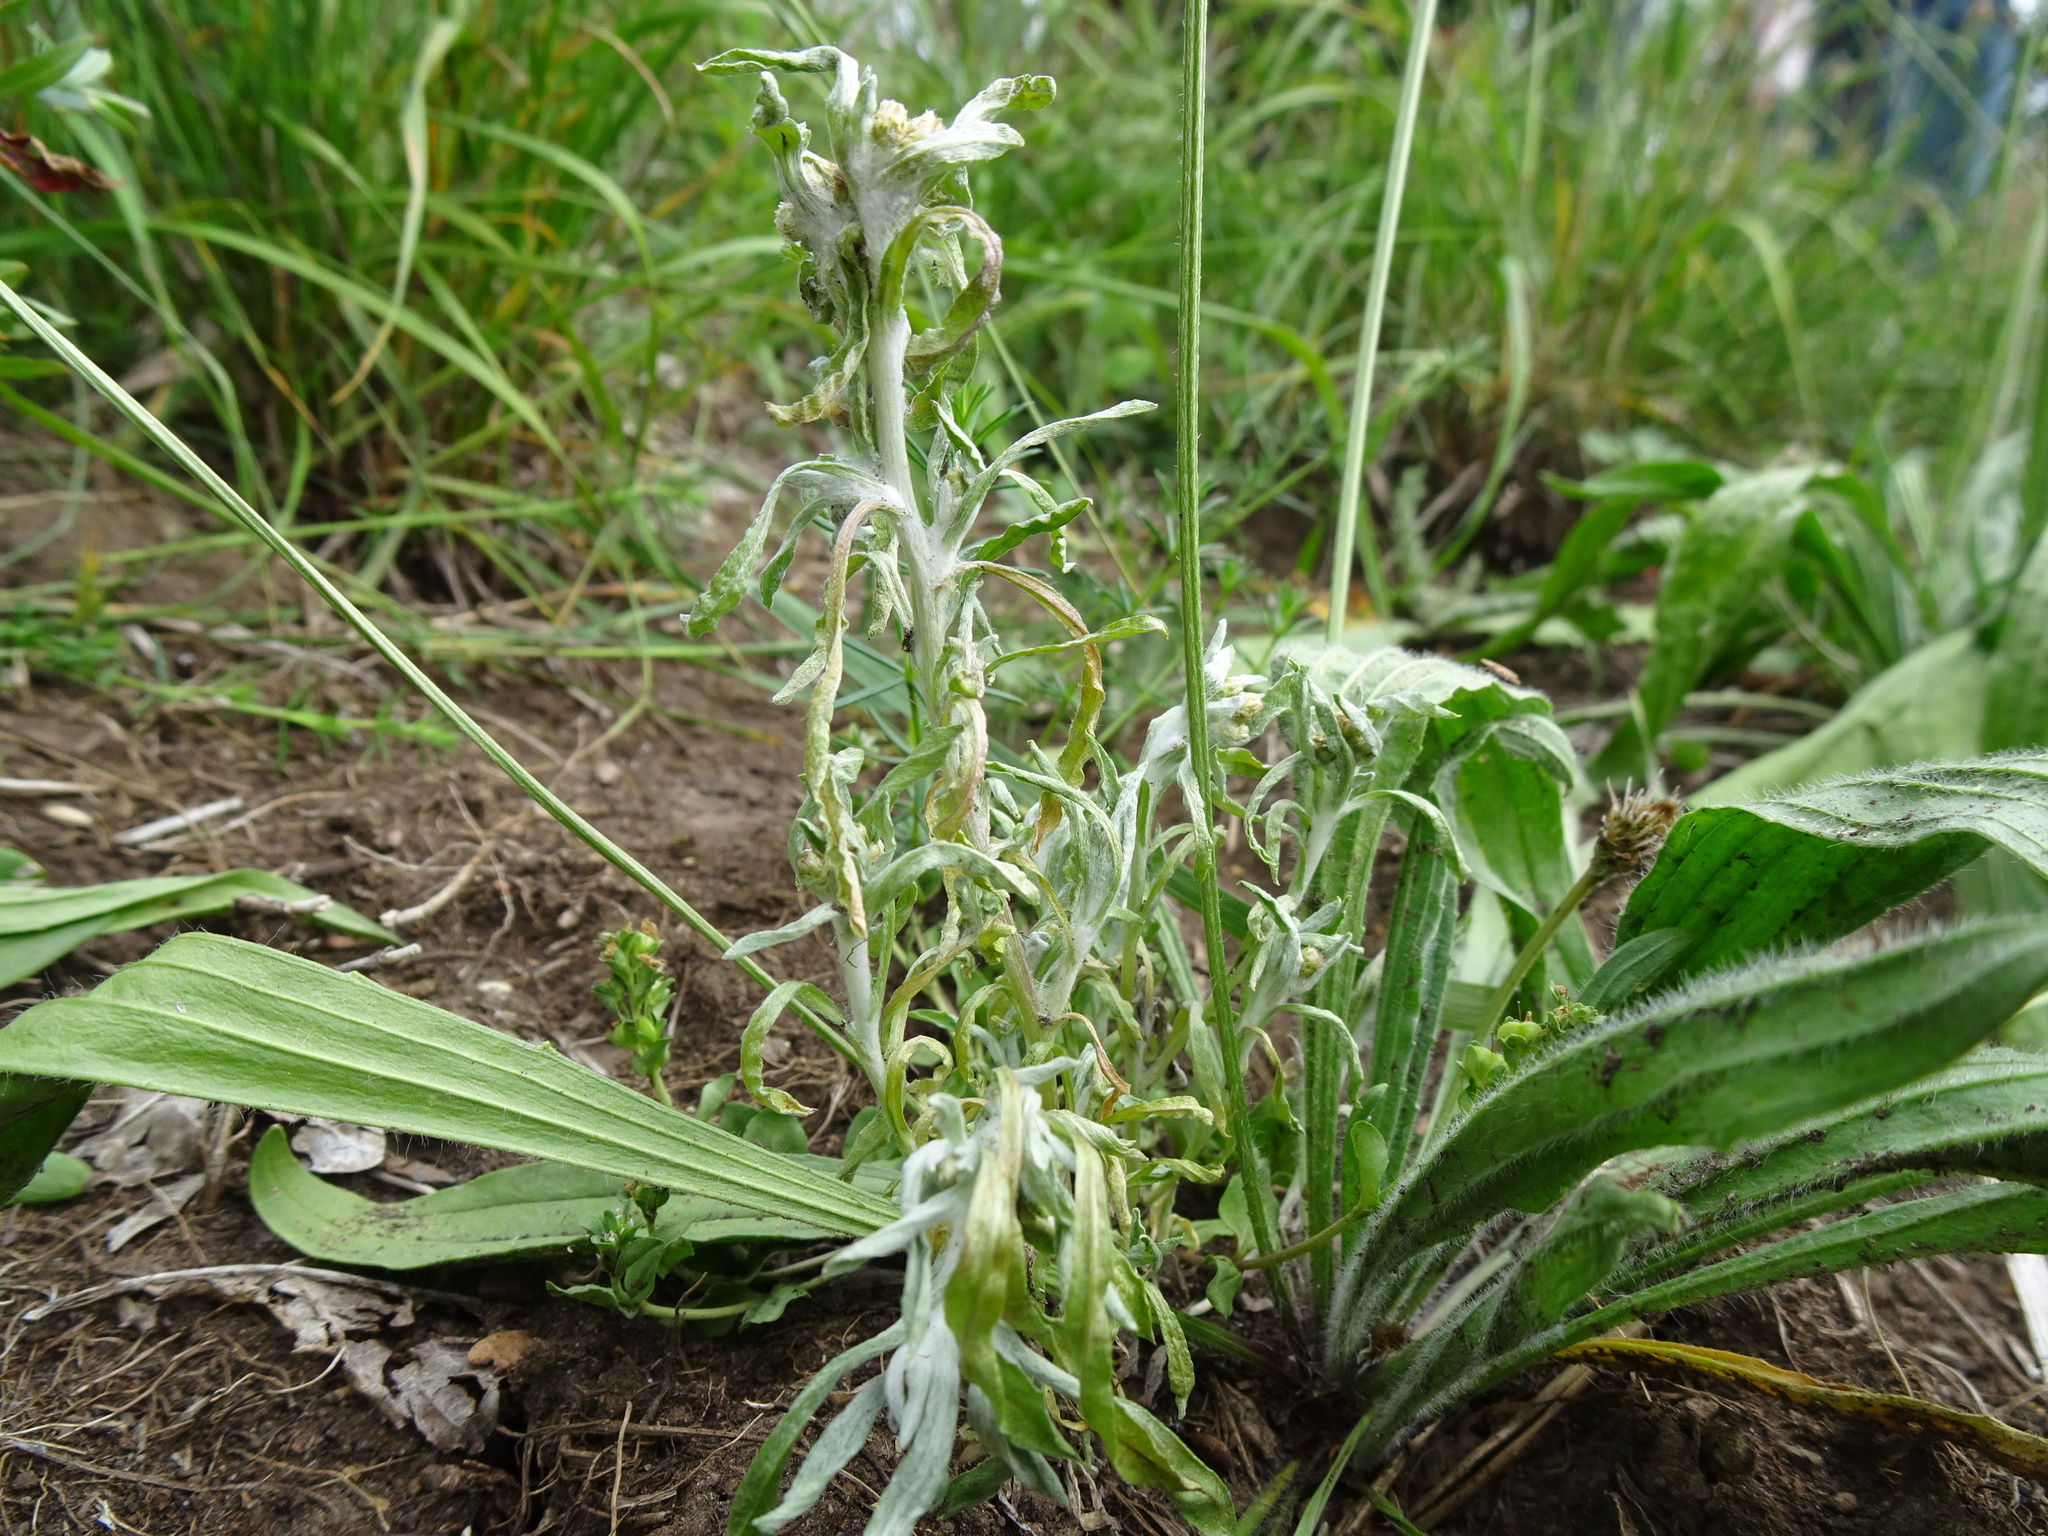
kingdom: Plantae
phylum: Tracheophyta
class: Magnoliopsida
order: Asterales
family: Asteraceae
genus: Gnaphalium
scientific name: Gnaphalium uliginosum
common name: Marsh cudweed
